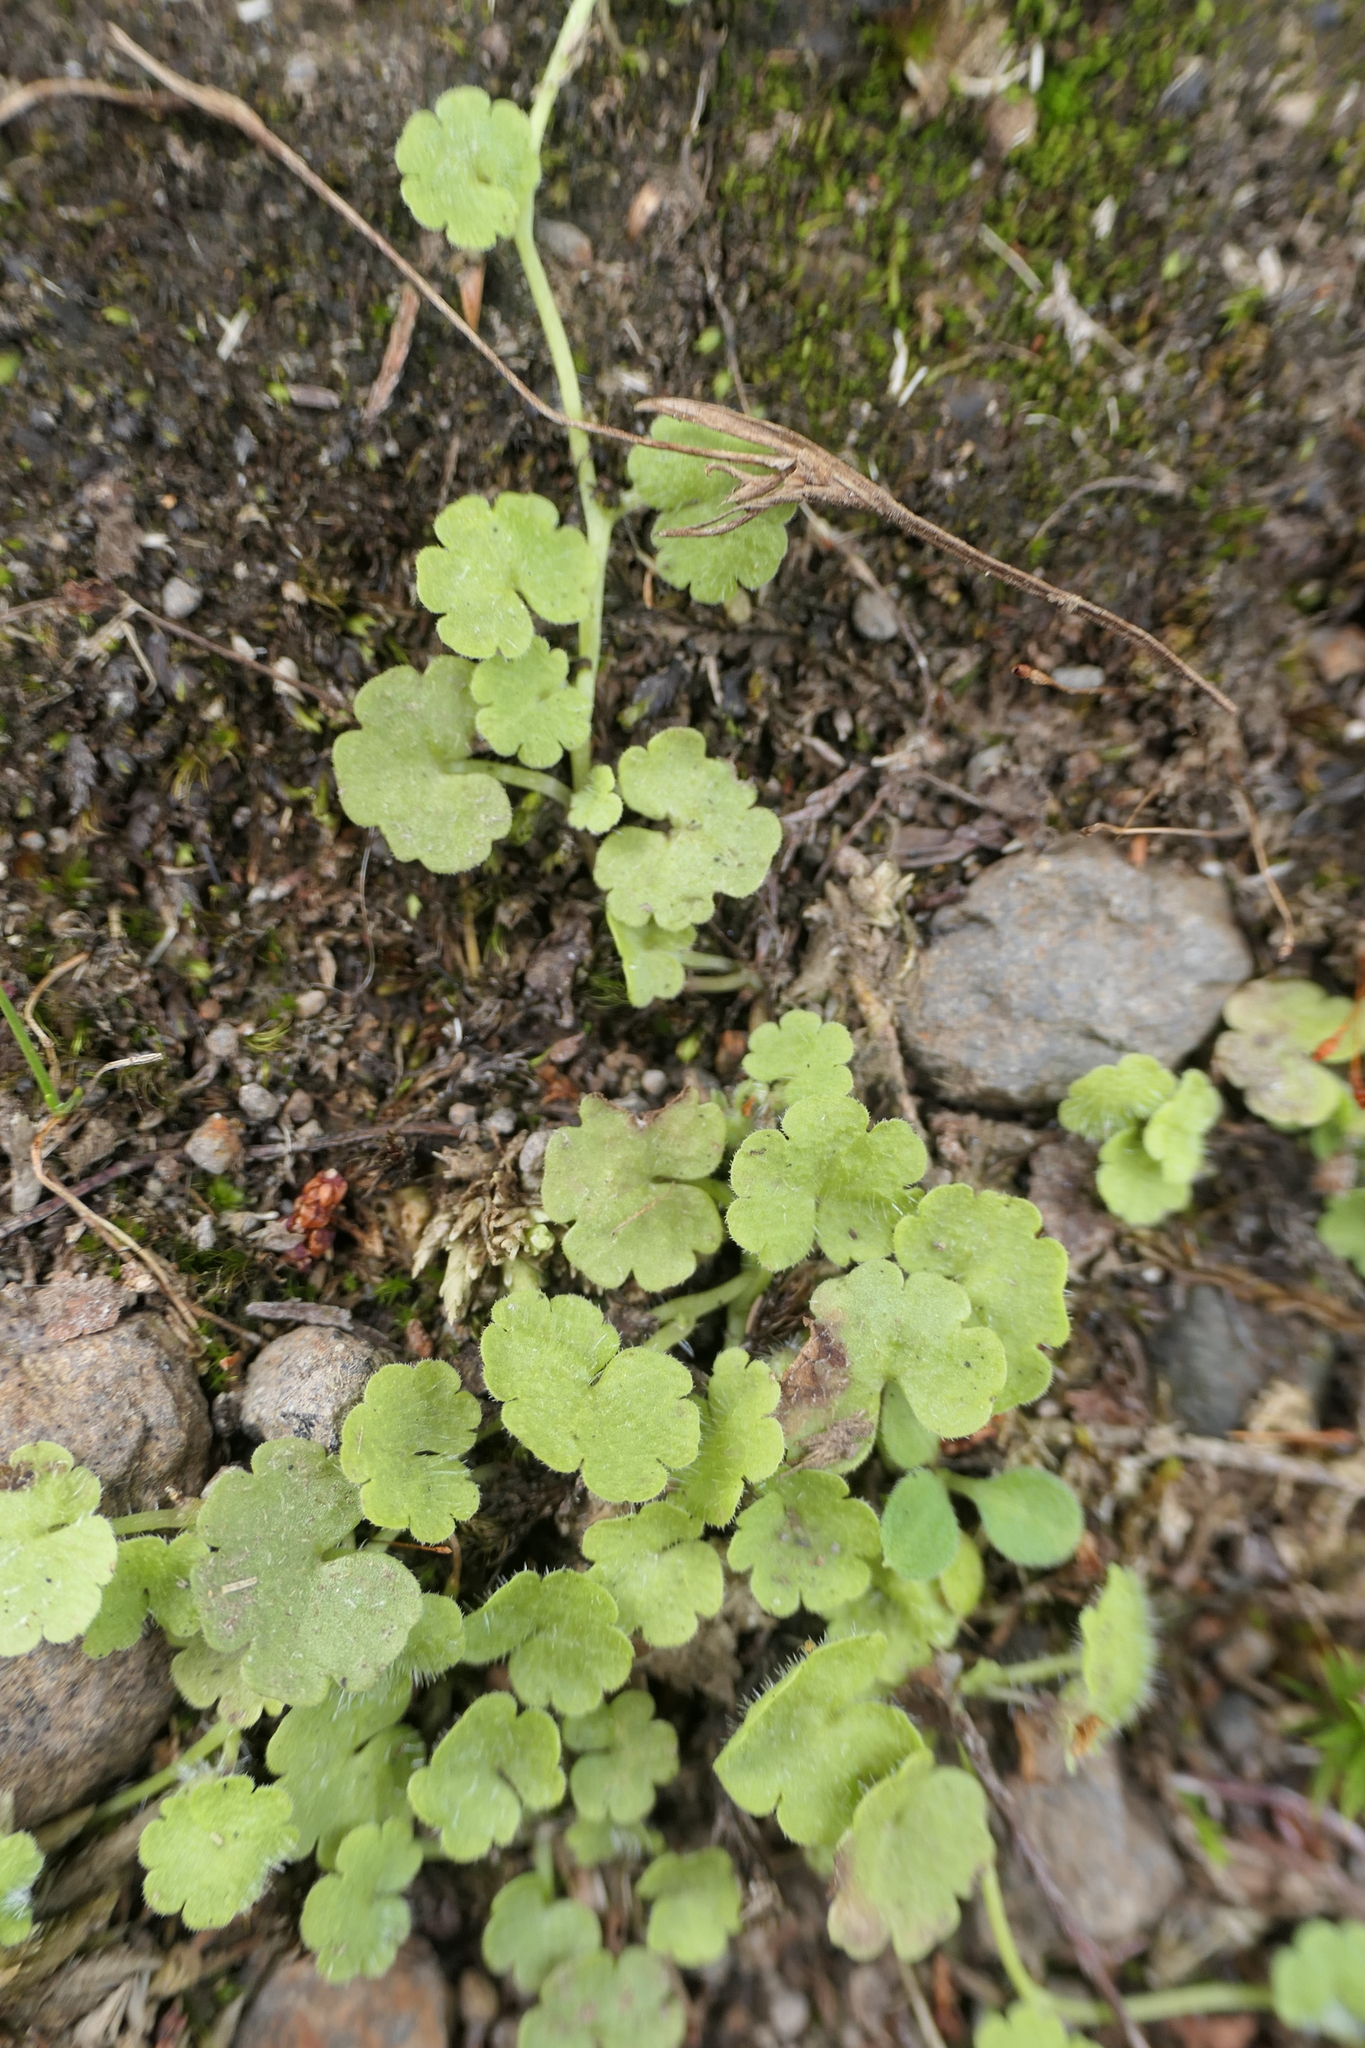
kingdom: Plantae
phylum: Tracheophyta
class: Magnoliopsida
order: Lamiales
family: Plantaginaceae
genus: Sibthorpia
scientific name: Sibthorpia europaea
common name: Cornish moneywort
